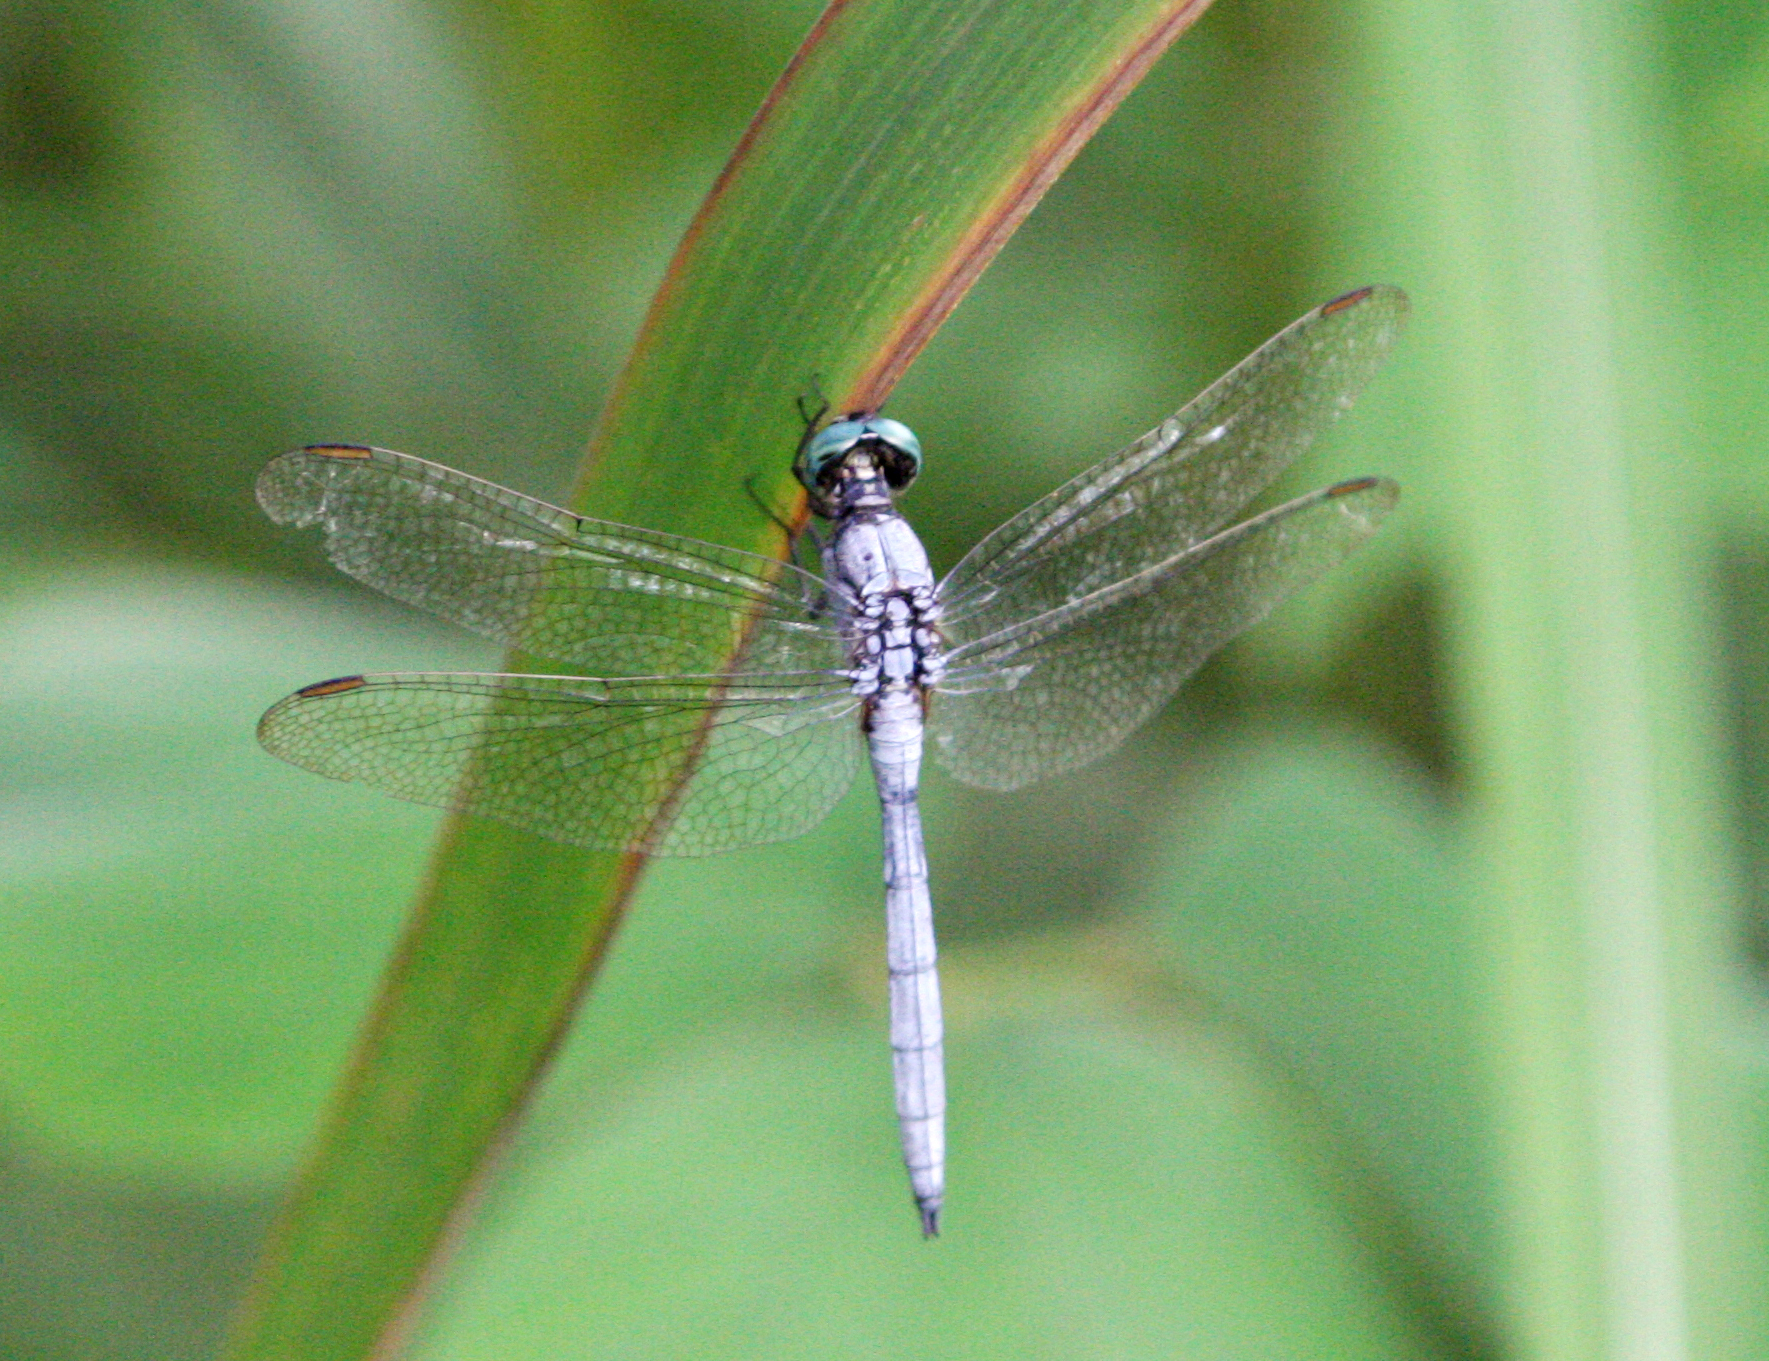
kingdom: Animalia
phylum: Arthropoda
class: Insecta
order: Odonata
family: Libellulidae
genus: Orthetrum
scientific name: Orthetrum luzonicum
